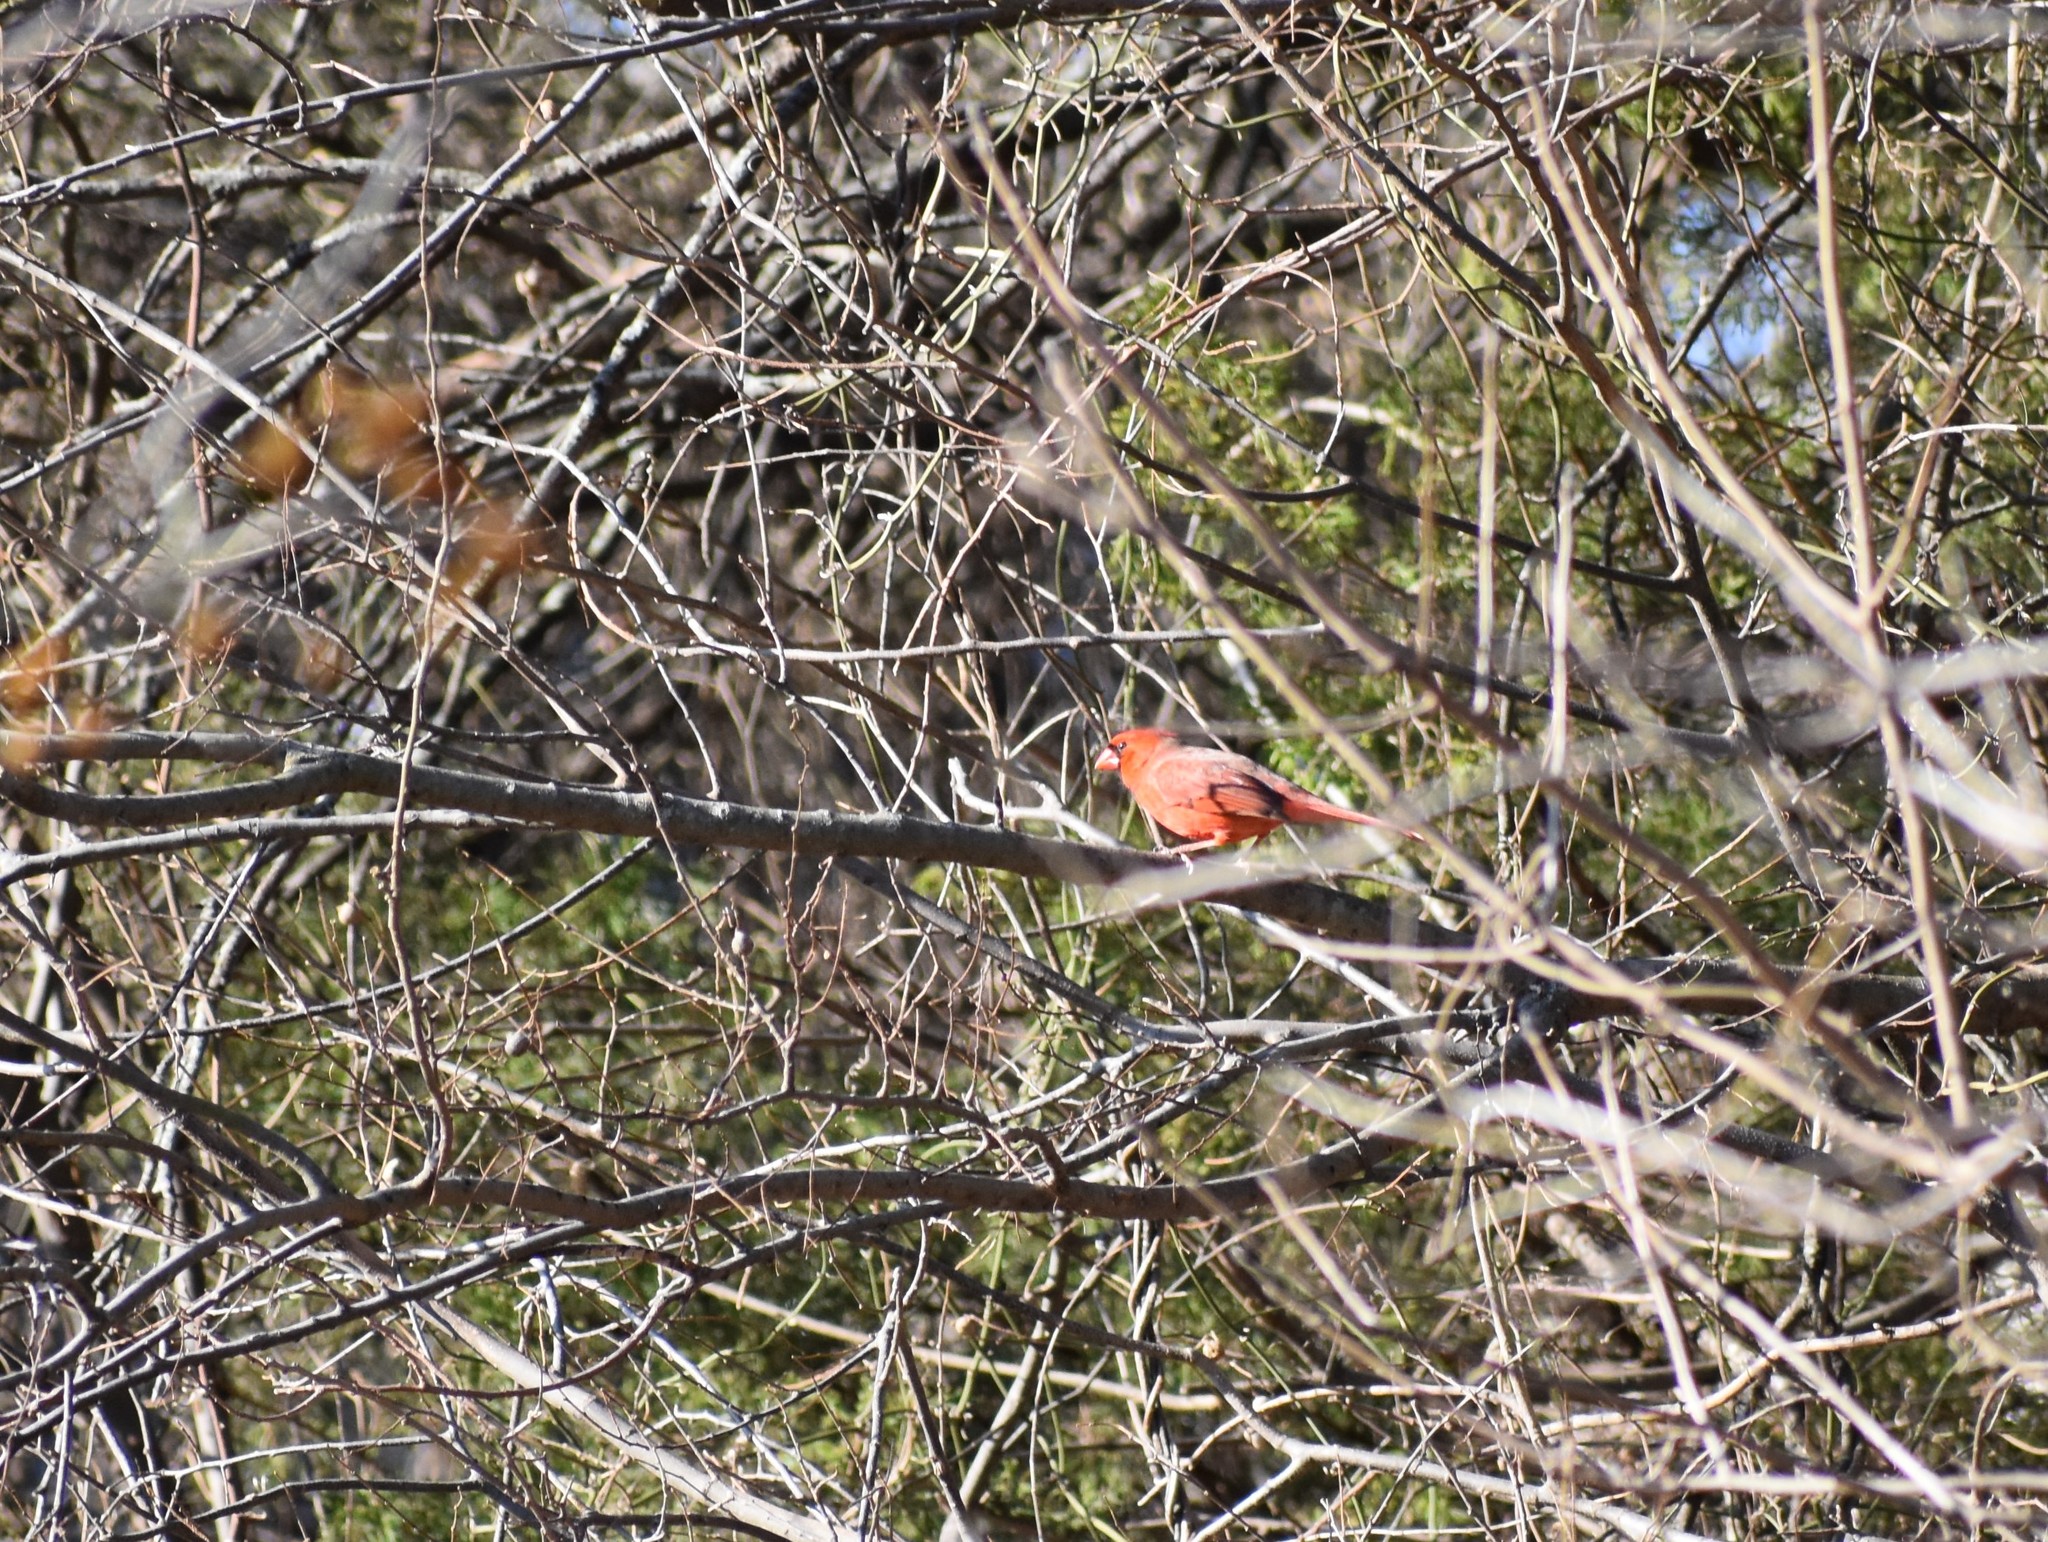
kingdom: Animalia
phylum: Chordata
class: Aves
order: Passeriformes
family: Cardinalidae
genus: Cardinalis
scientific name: Cardinalis cardinalis
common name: Northern cardinal
